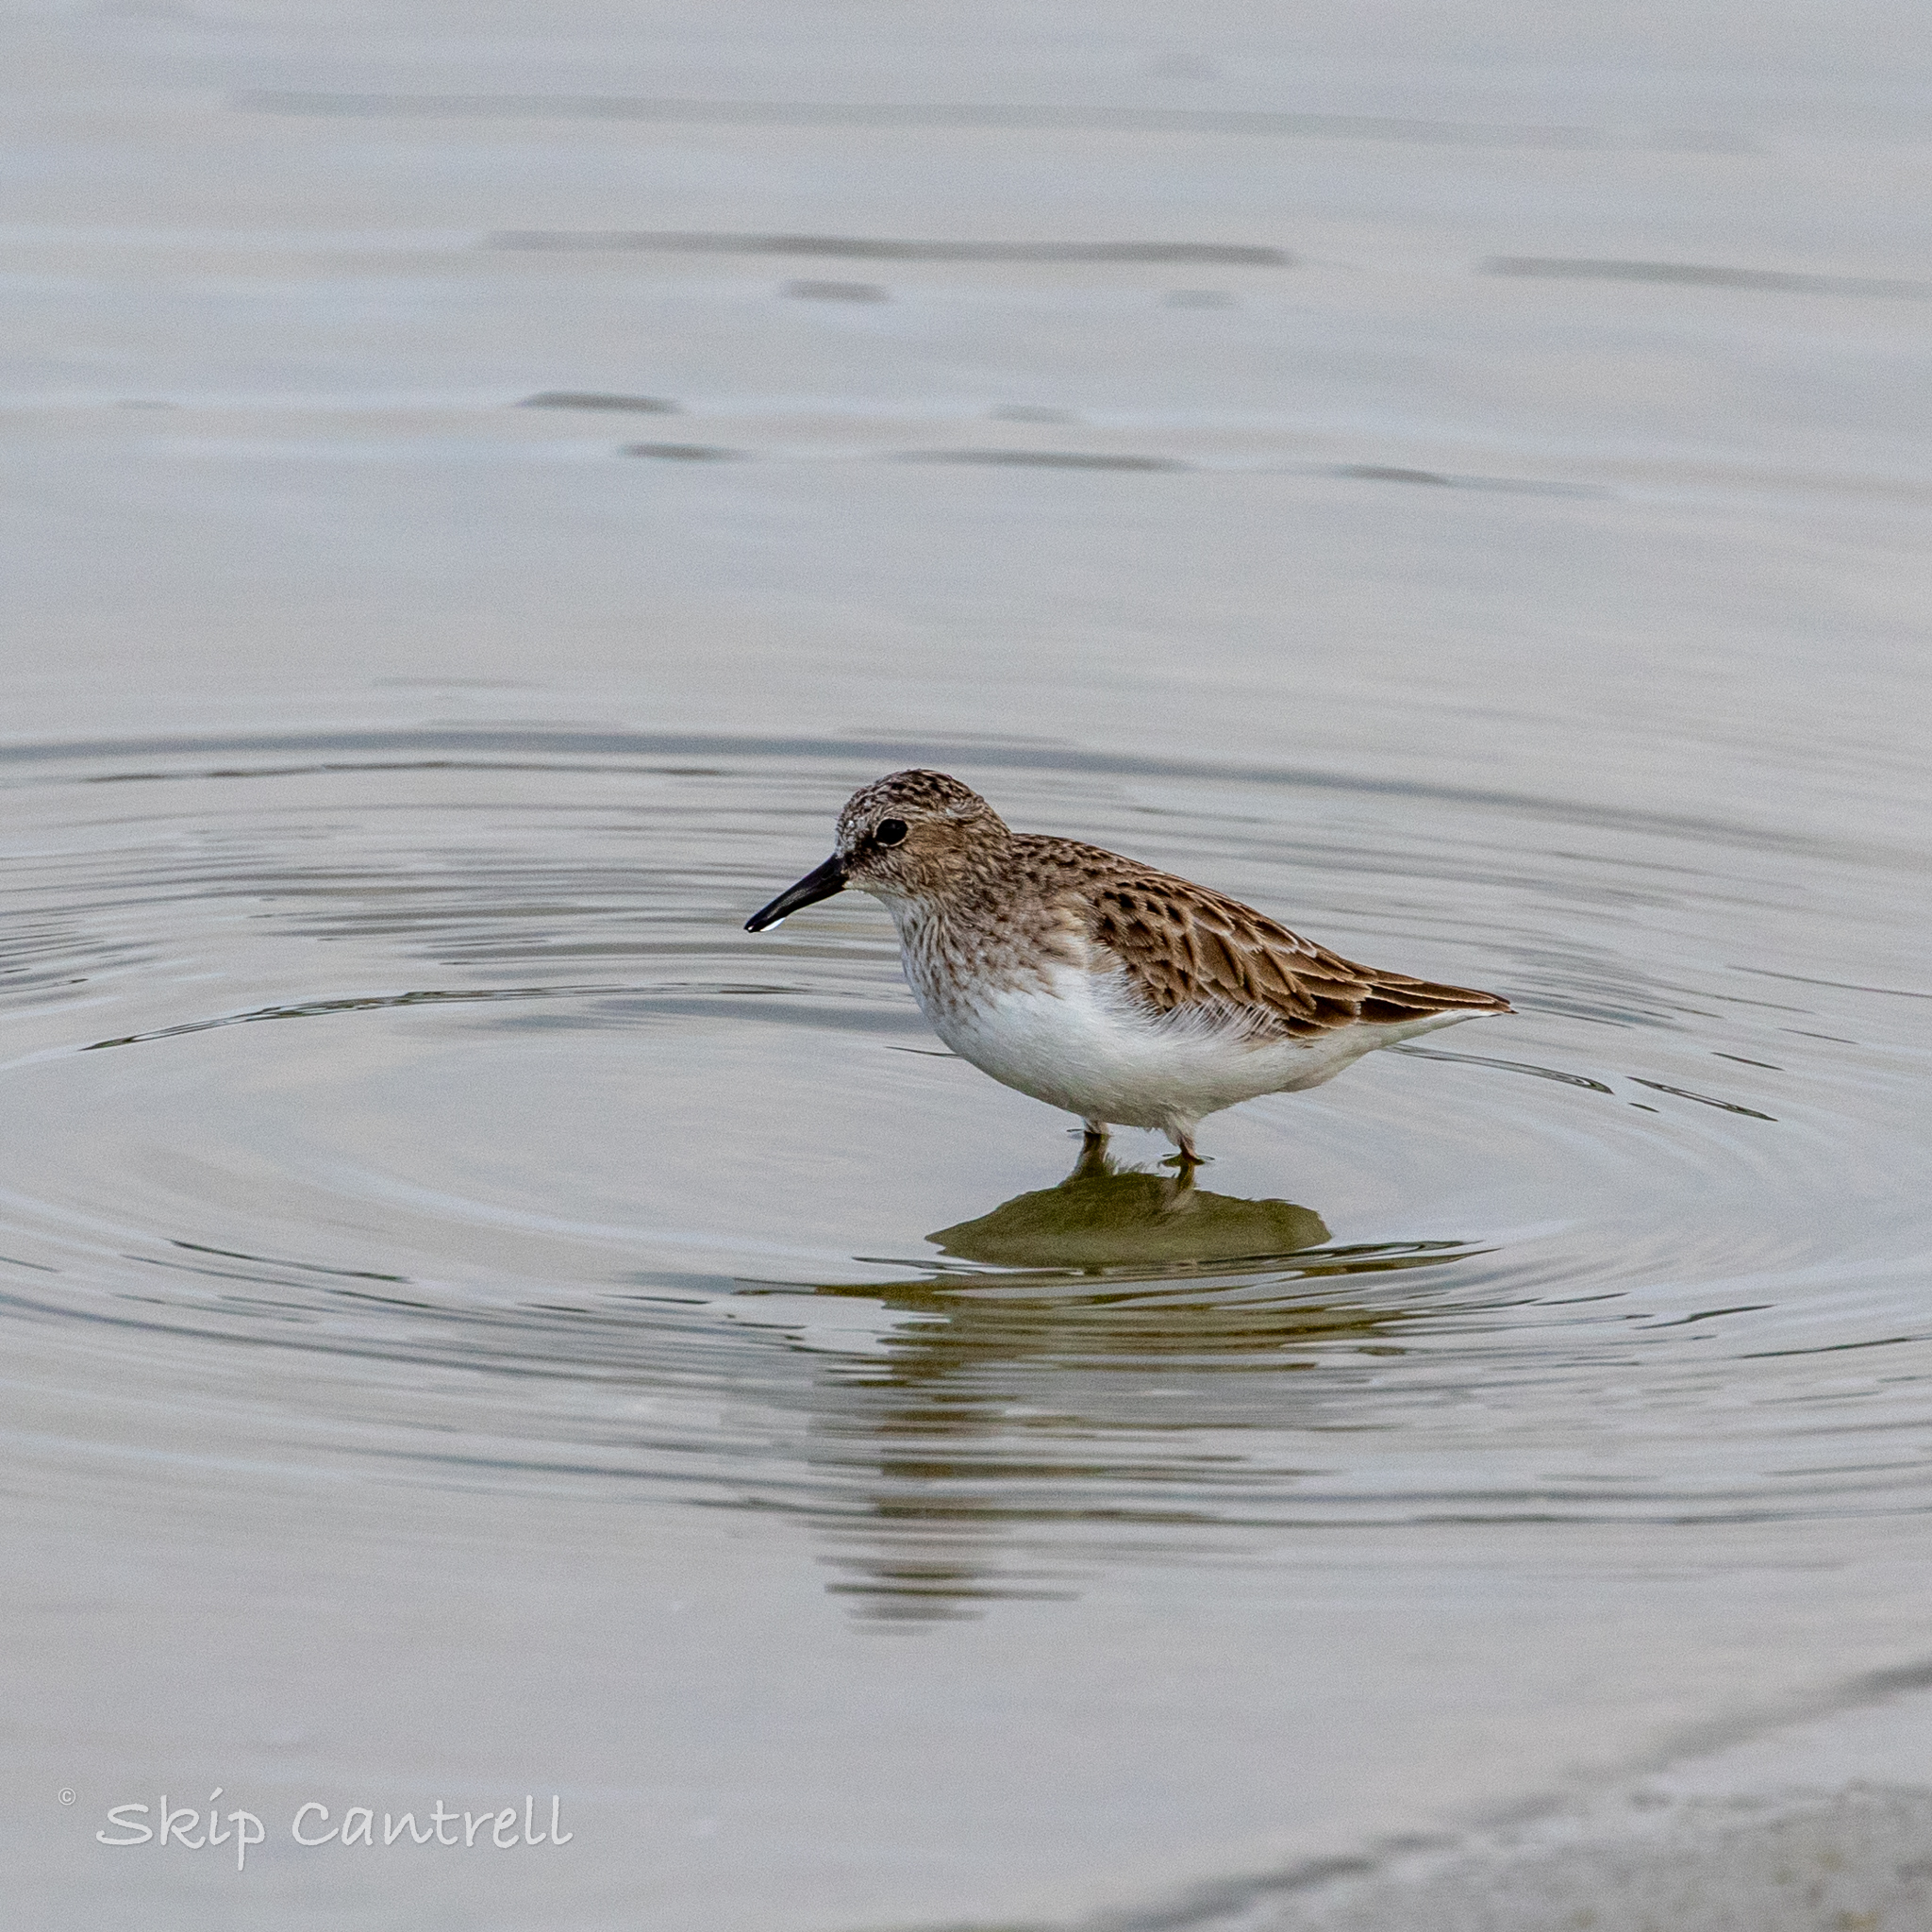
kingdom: Animalia
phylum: Chordata
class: Aves
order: Charadriiformes
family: Scolopacidae
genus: Calidris
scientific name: Calidris minutilla
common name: Least sandpiper
